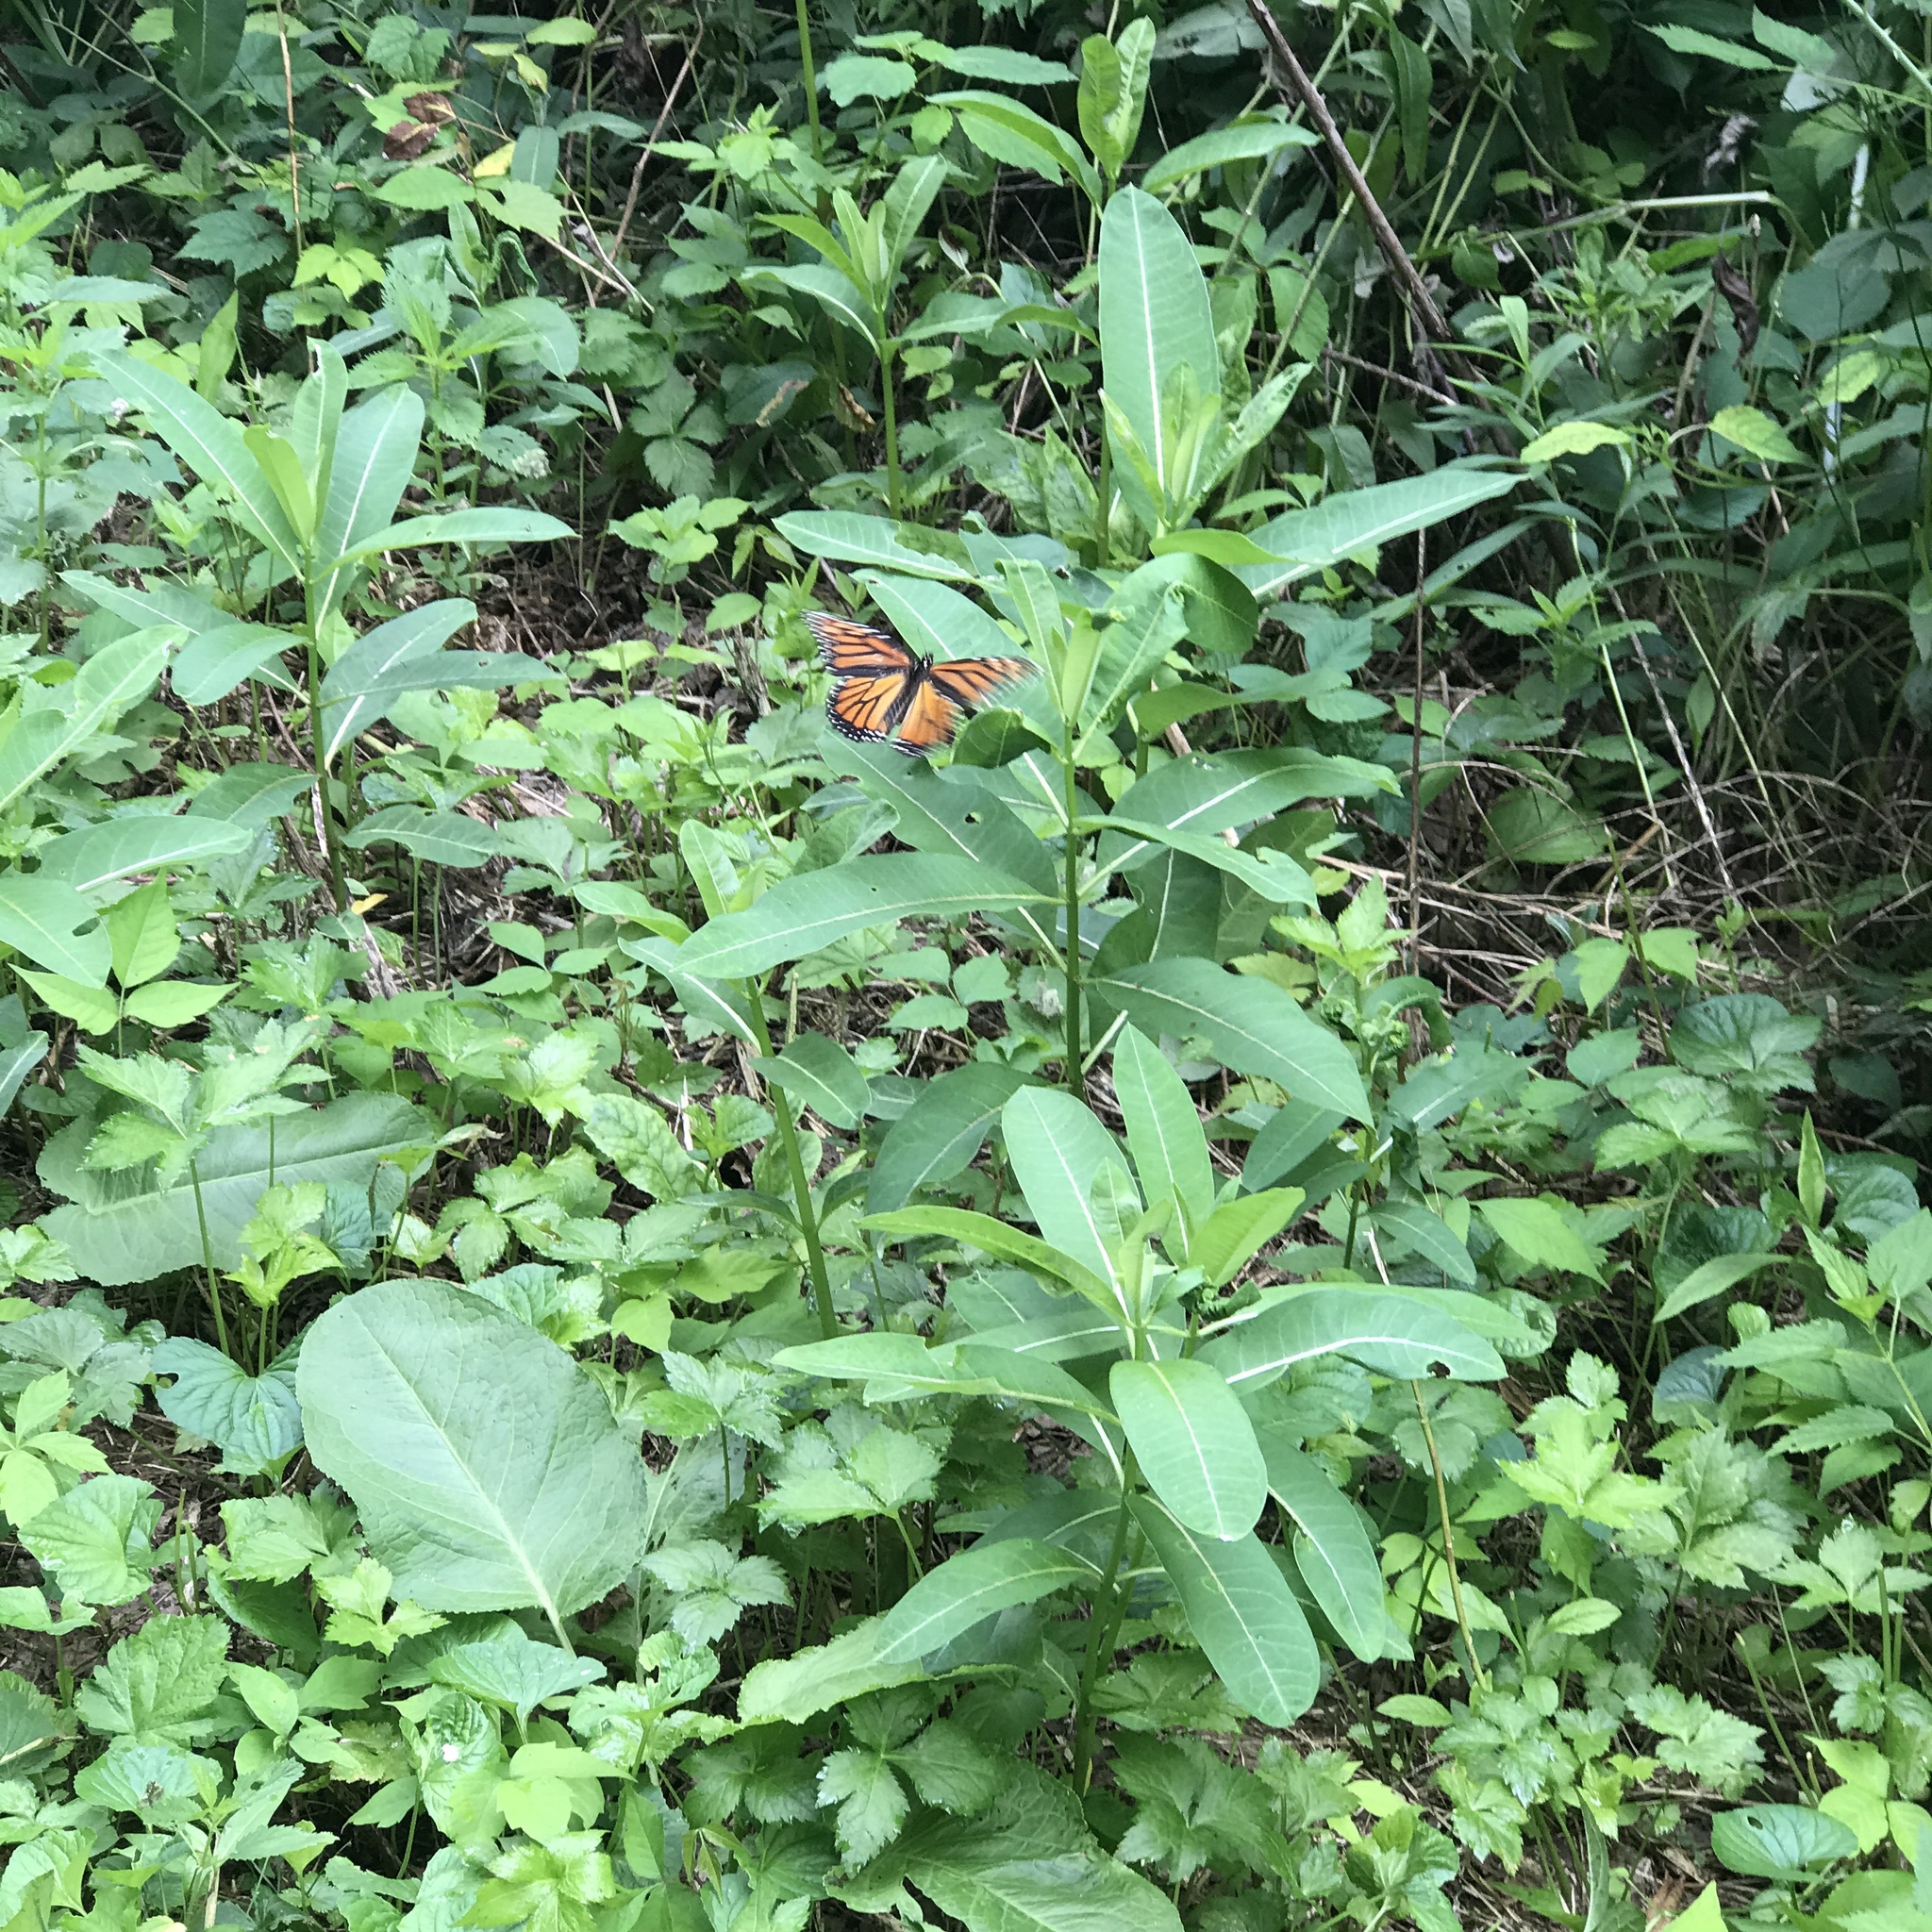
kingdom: Animalia
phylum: Arthropoda
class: Insecta
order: Lepidoptera
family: Nymphalidae
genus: Danaus
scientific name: Danaus plexippus
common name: Monarch
